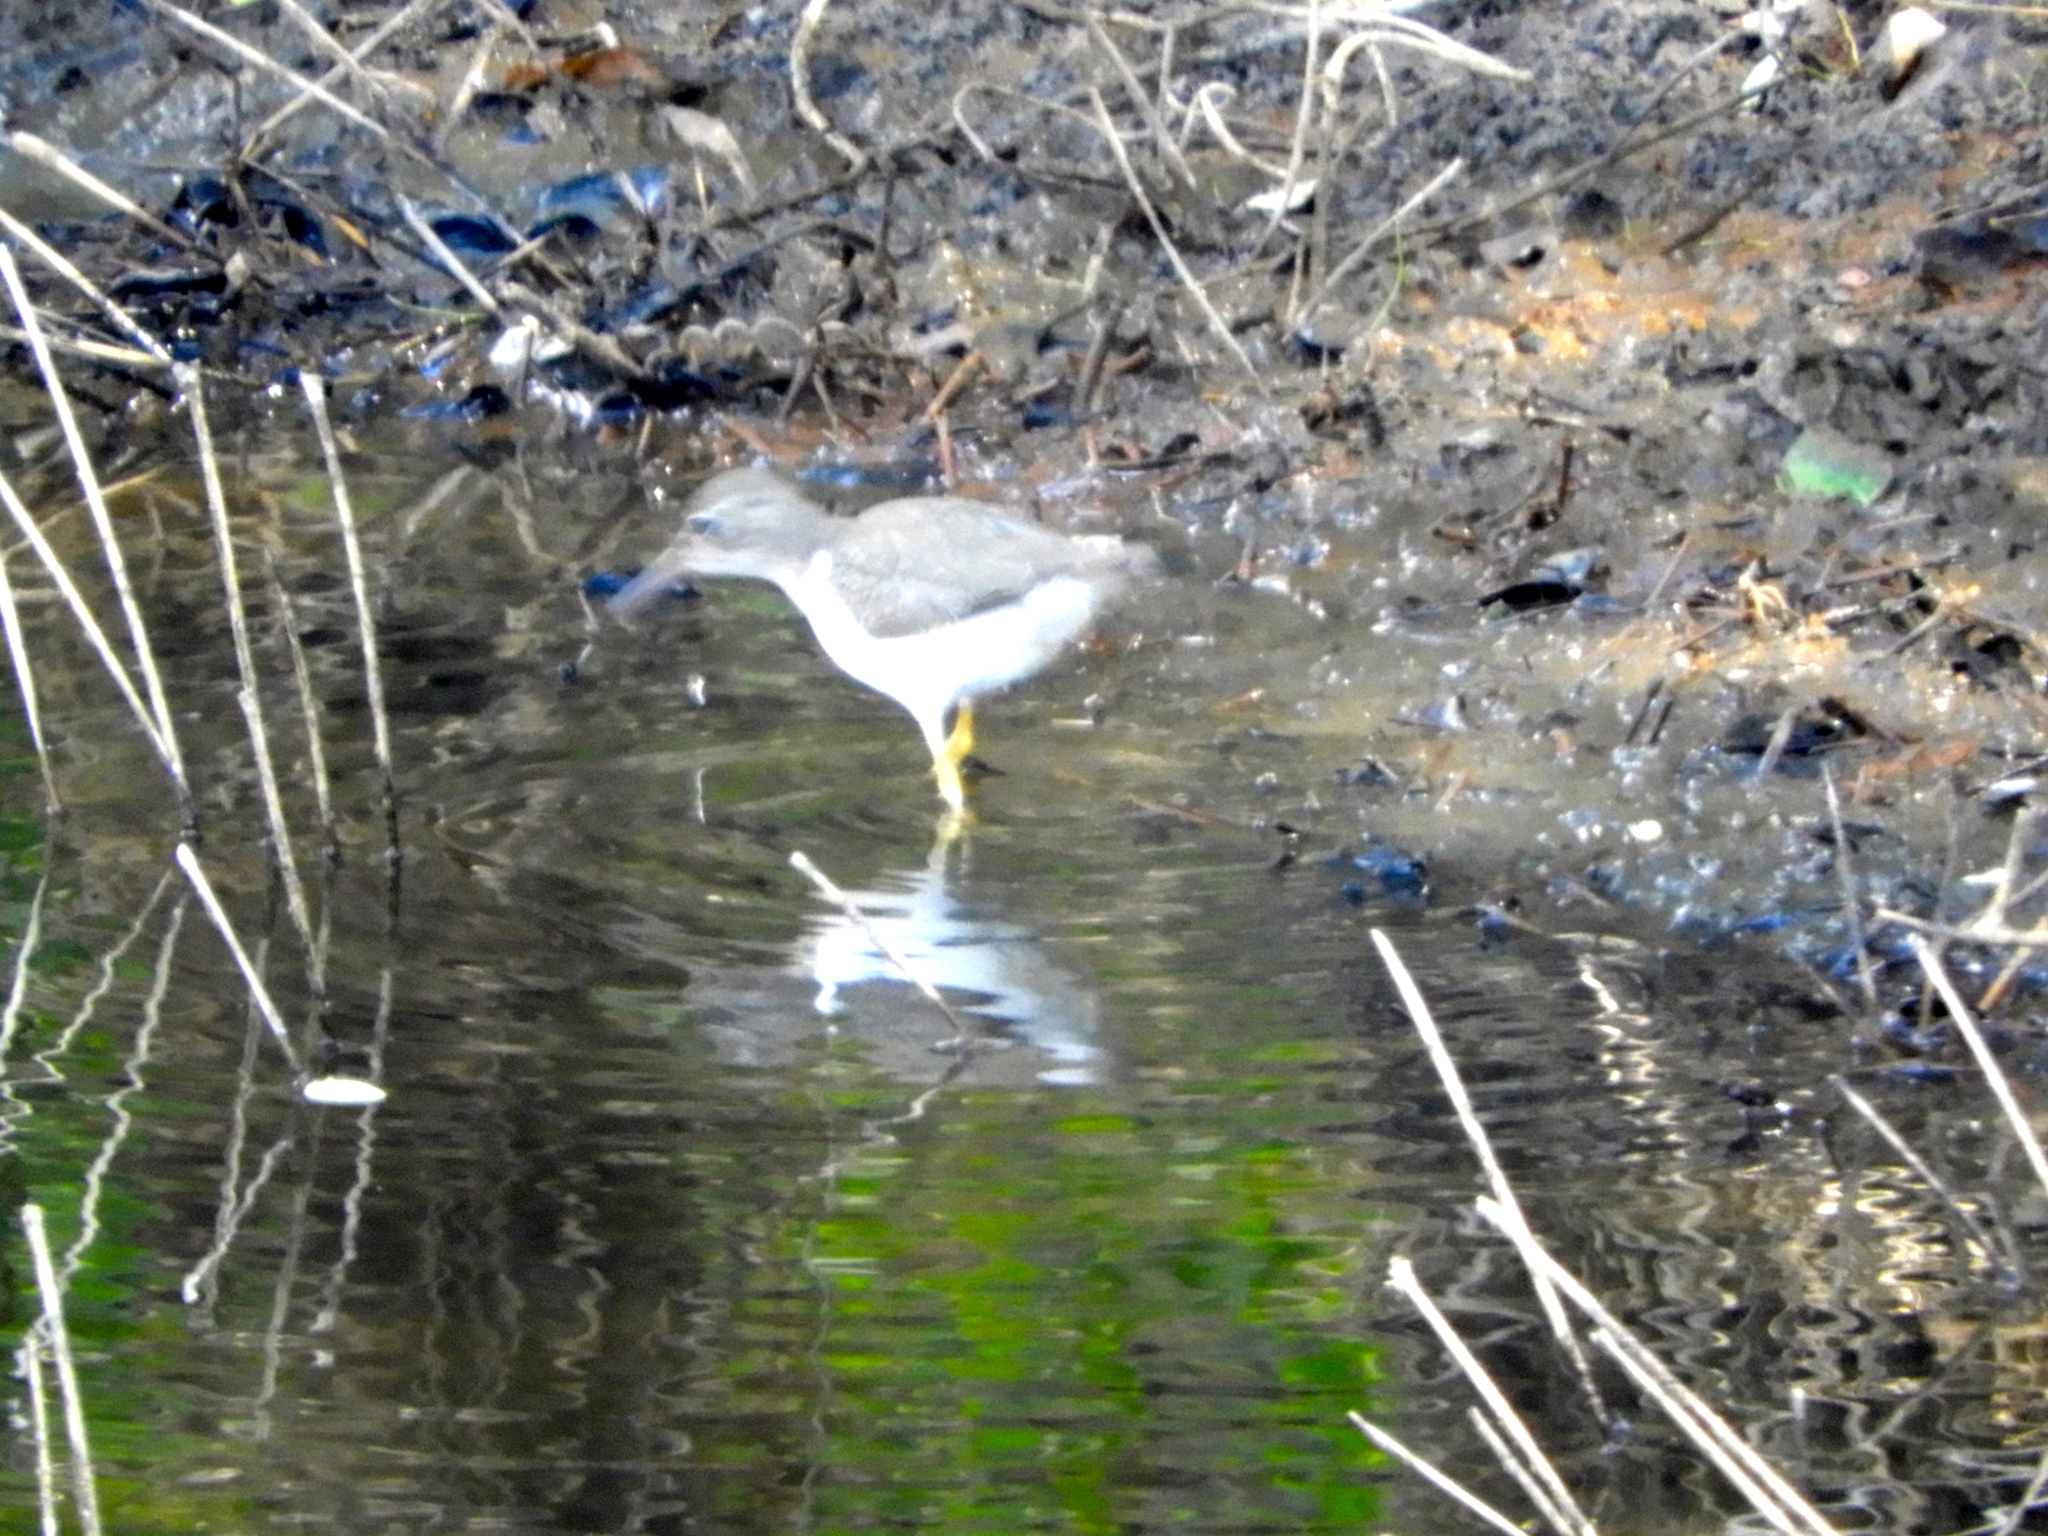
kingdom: Animalia
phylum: Chordata
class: Aves
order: Charadriiformes
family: Scolopacidae
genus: Actitis
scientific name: Actitis macularius
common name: Spotted sandpiper
